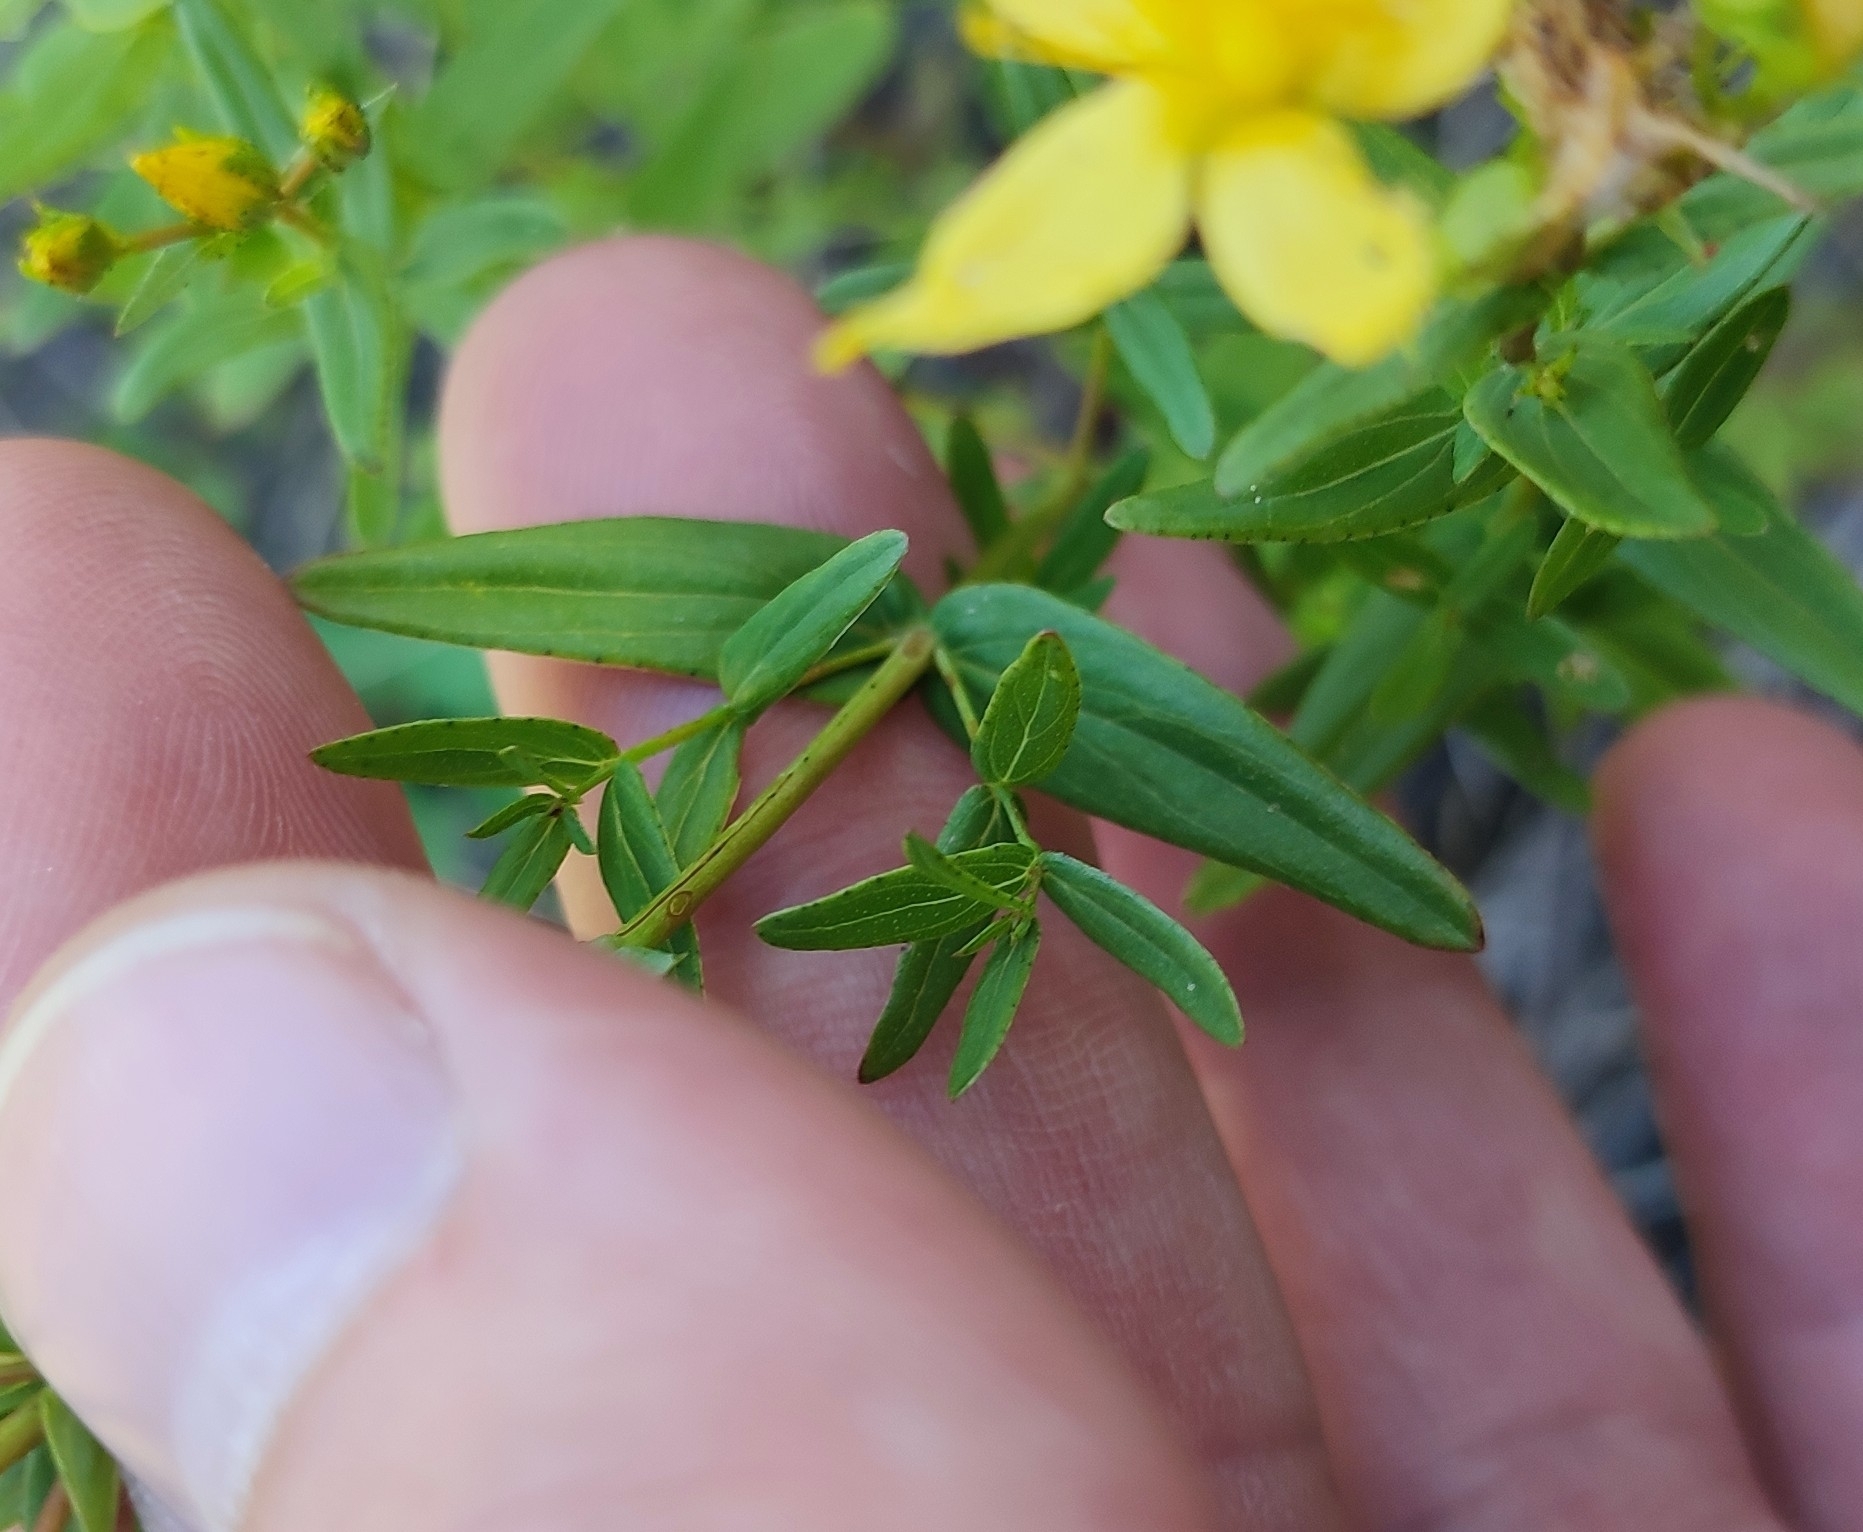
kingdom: Plantae
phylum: Tracheophyta
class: Magnoliopsida
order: Malpighiales
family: Hypericaceae
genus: Hypericum
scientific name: Hypericum elegans
